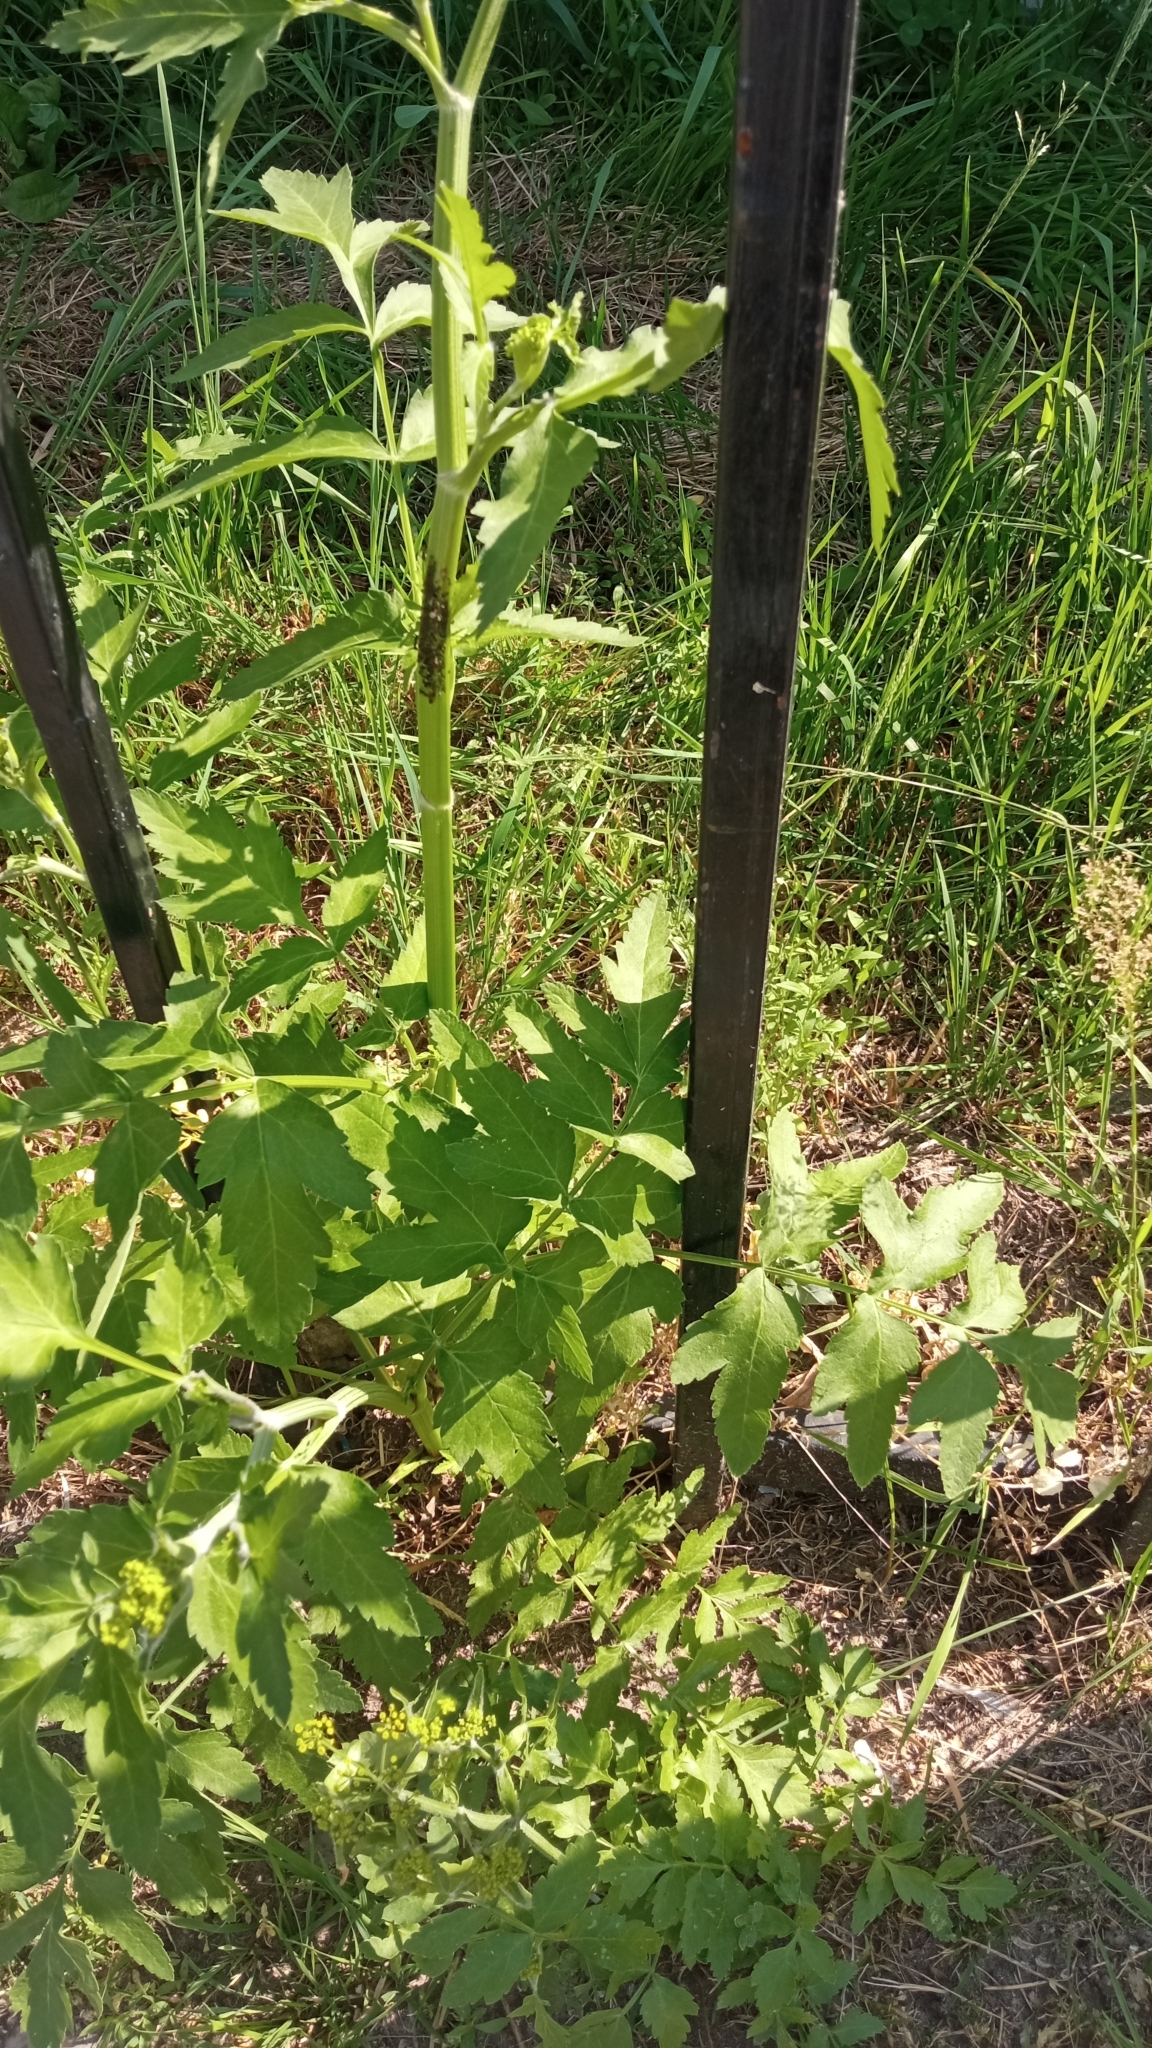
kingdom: Plantae
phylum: Tracheophyta
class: Magnoliopsida
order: Apiales
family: Apiaceae
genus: Pastinaca
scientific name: Pastinaca sativa
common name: Wild parsnip
